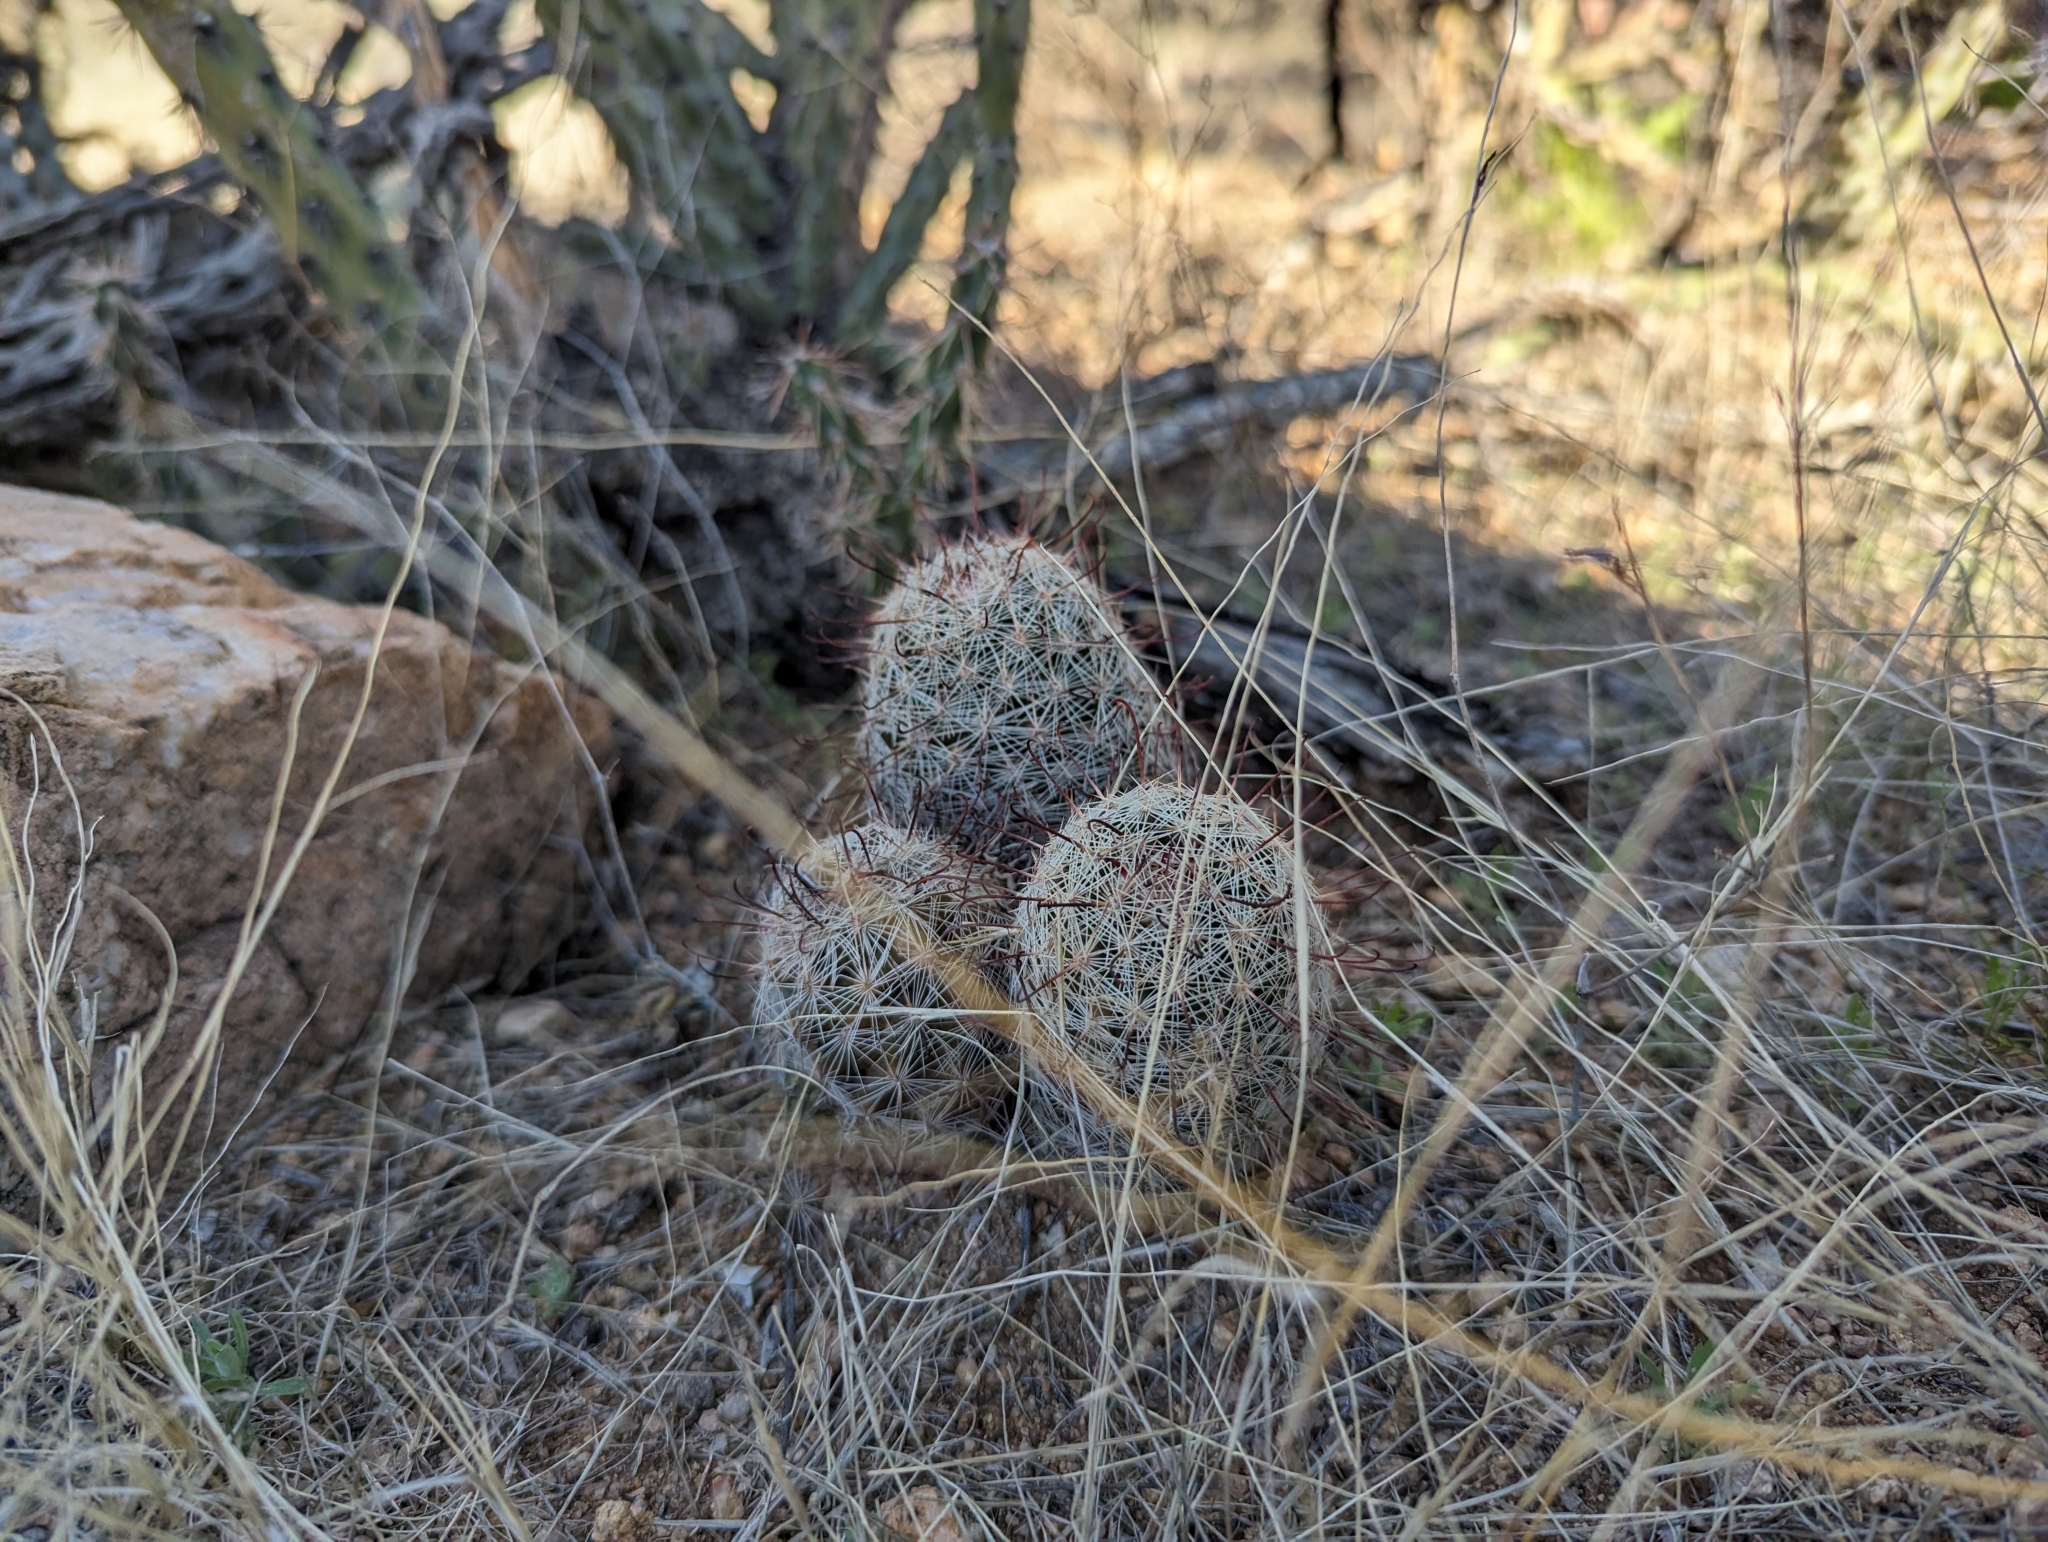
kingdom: Plantae
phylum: Tracheophyta
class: Magnoliopsida
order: Caryophyllales
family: Cactaceae
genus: Cochemiea
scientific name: Cochemiea grahamii
